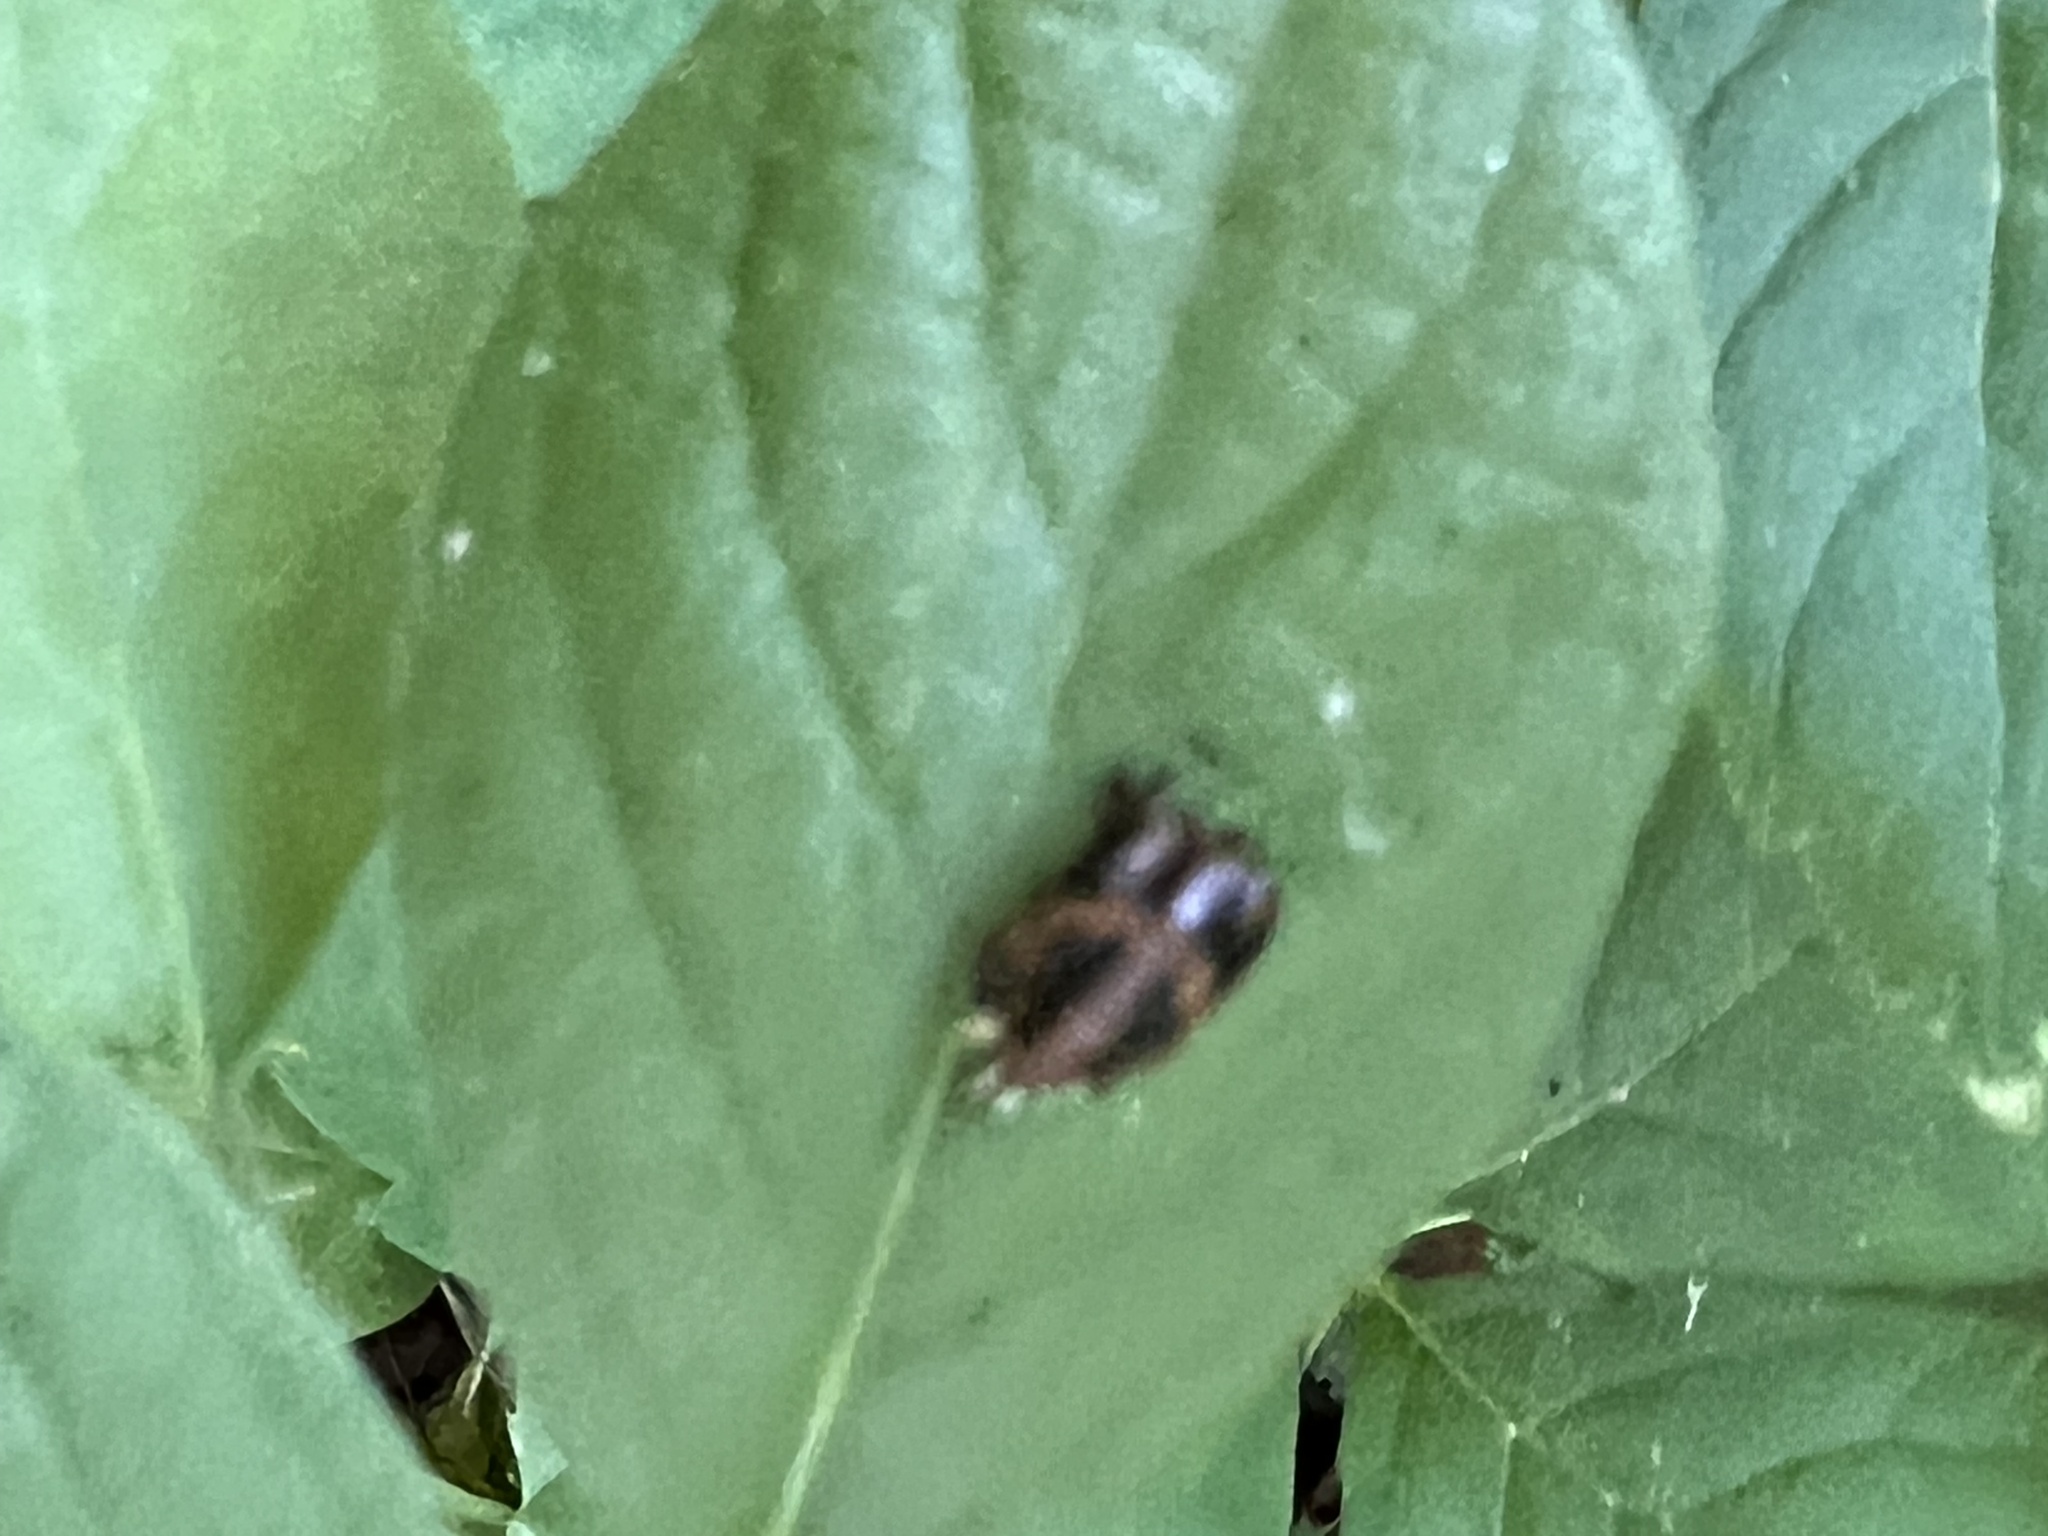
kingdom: Animalia
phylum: Arthropoda
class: Insecta
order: Coleoptera
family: Coccinellidae
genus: Harmonia
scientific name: Harmonia axyridis
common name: Harlequin ladybird
